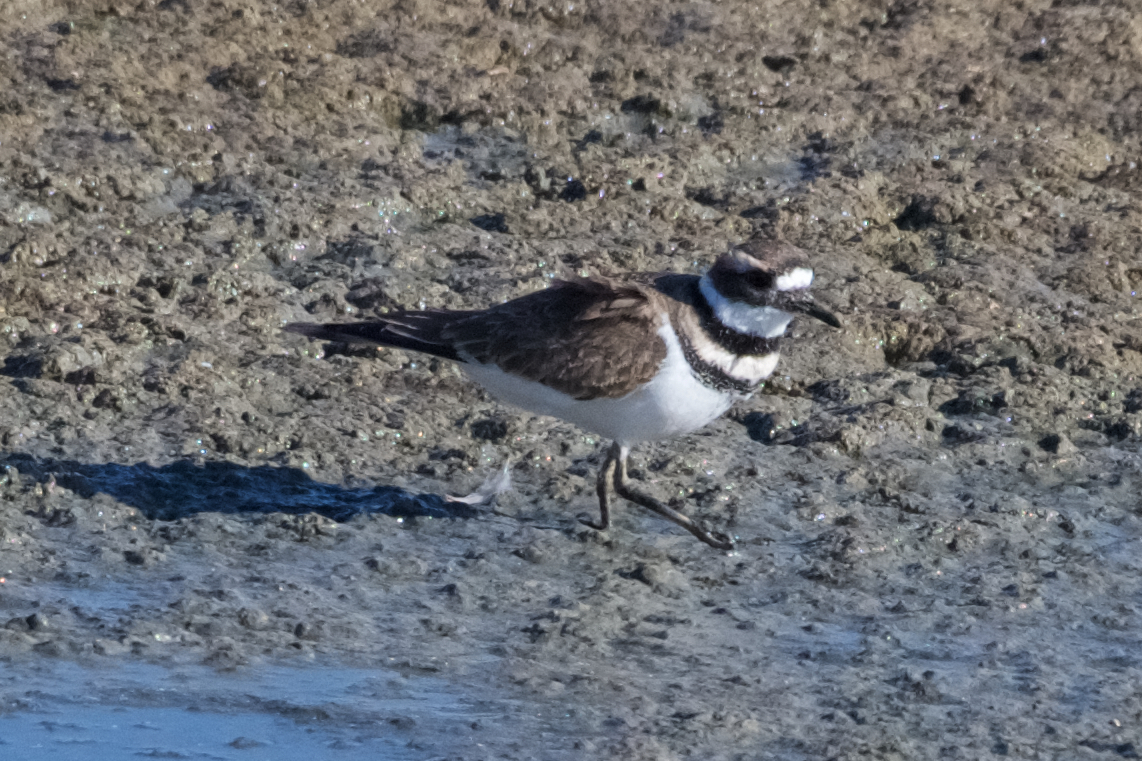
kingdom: Animalia
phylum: Chordata
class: Aves
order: Charadriiformes
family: Charadriidae
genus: Charadrius
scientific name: Charadrius vociferus
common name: Killdeer
